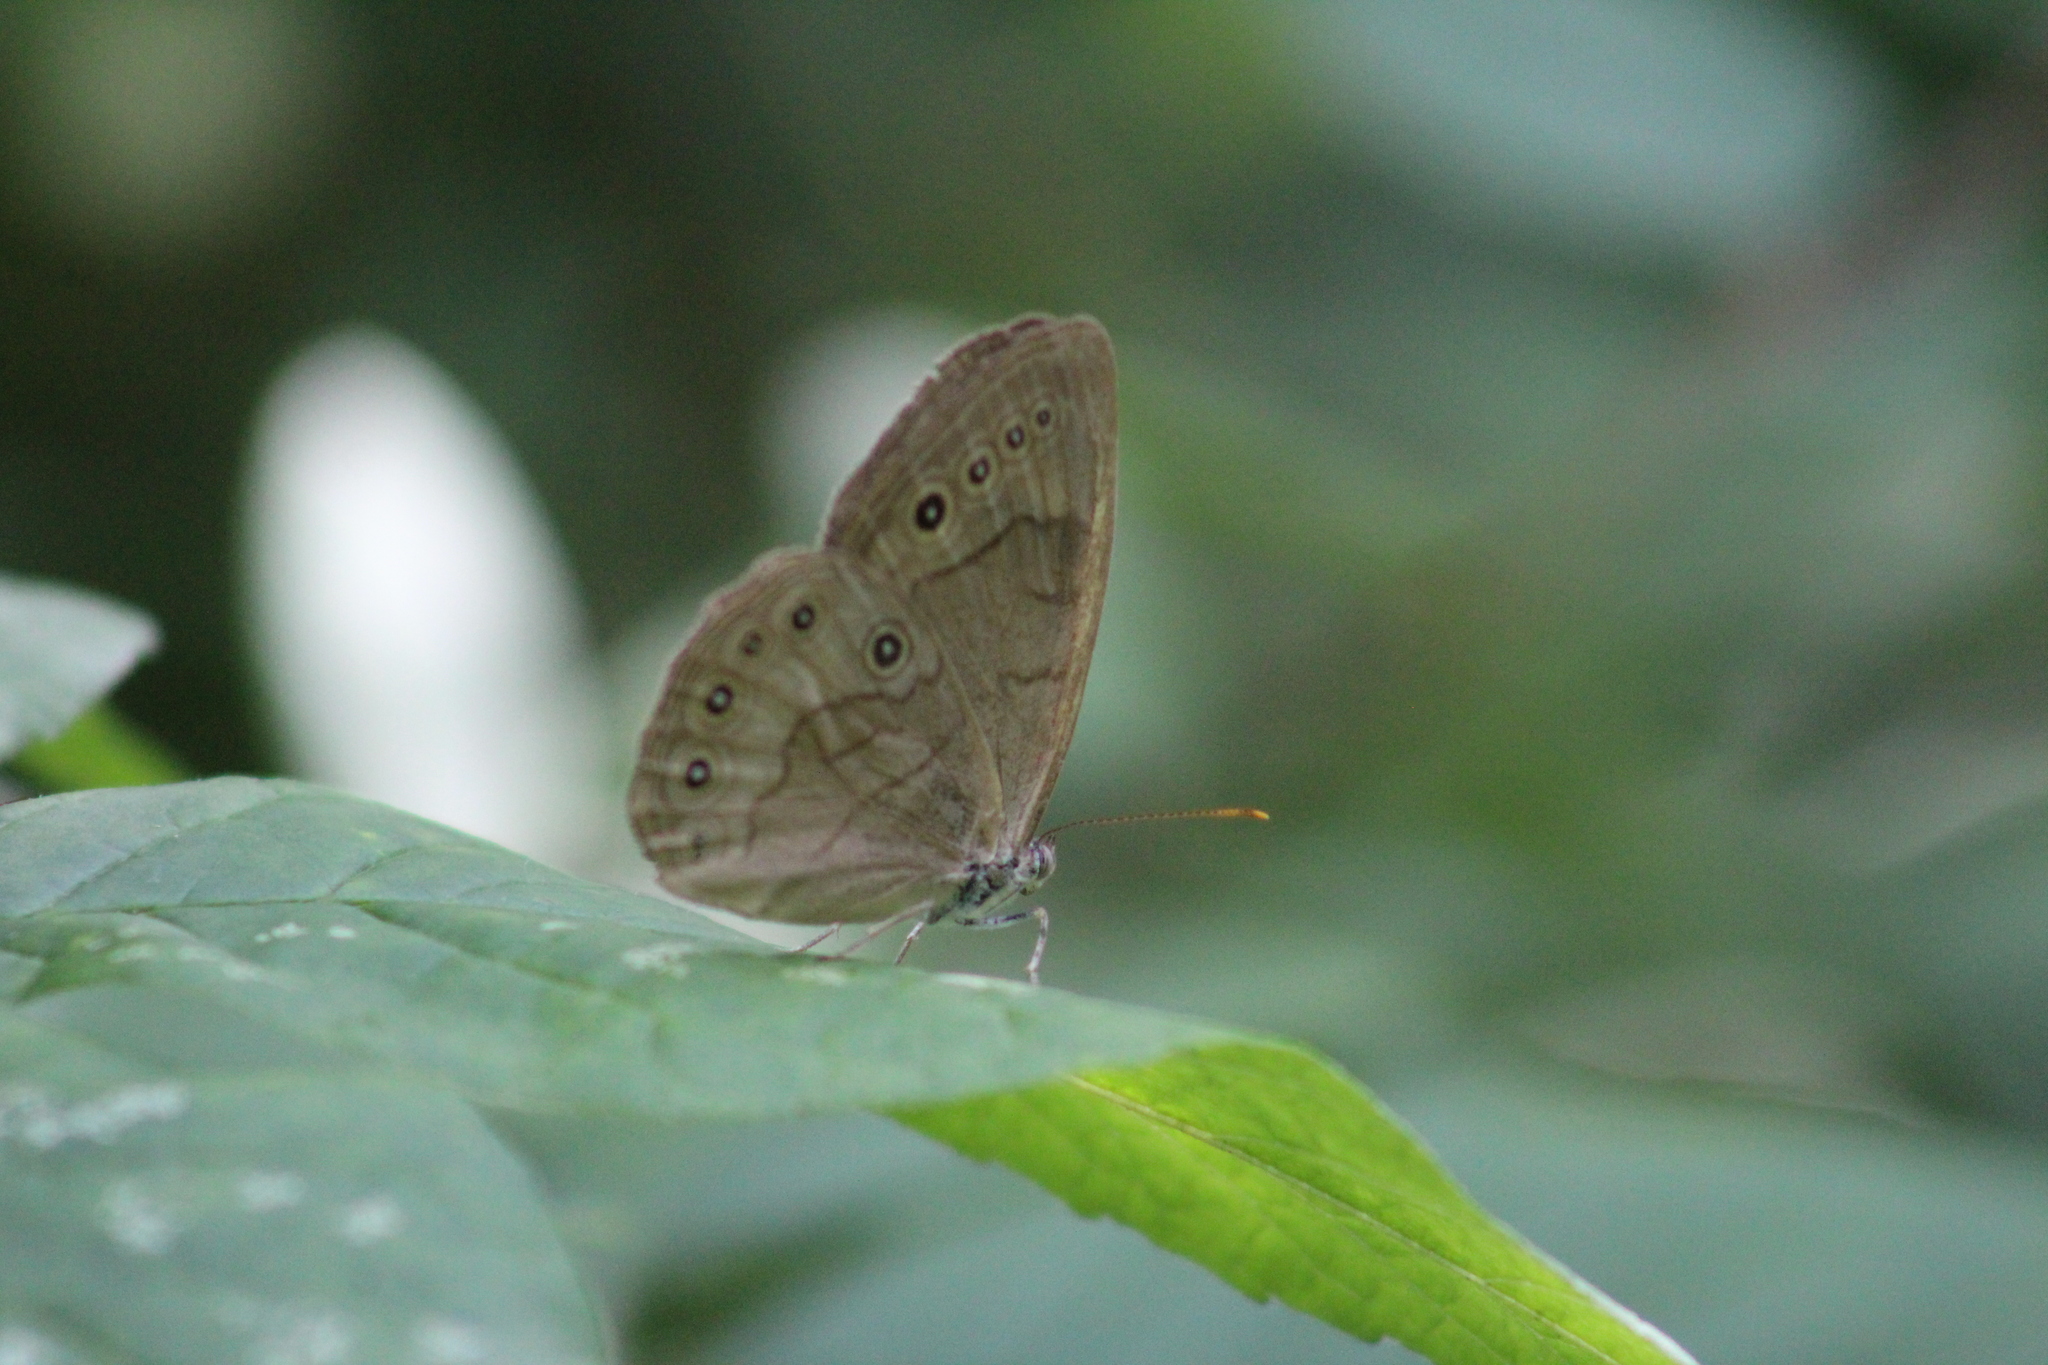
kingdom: Animalia
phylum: Arthropoda
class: Insecta
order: Lepidoptera
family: Nymphalidae
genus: Lethe
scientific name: Lethe eurydice
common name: Eyed brown
